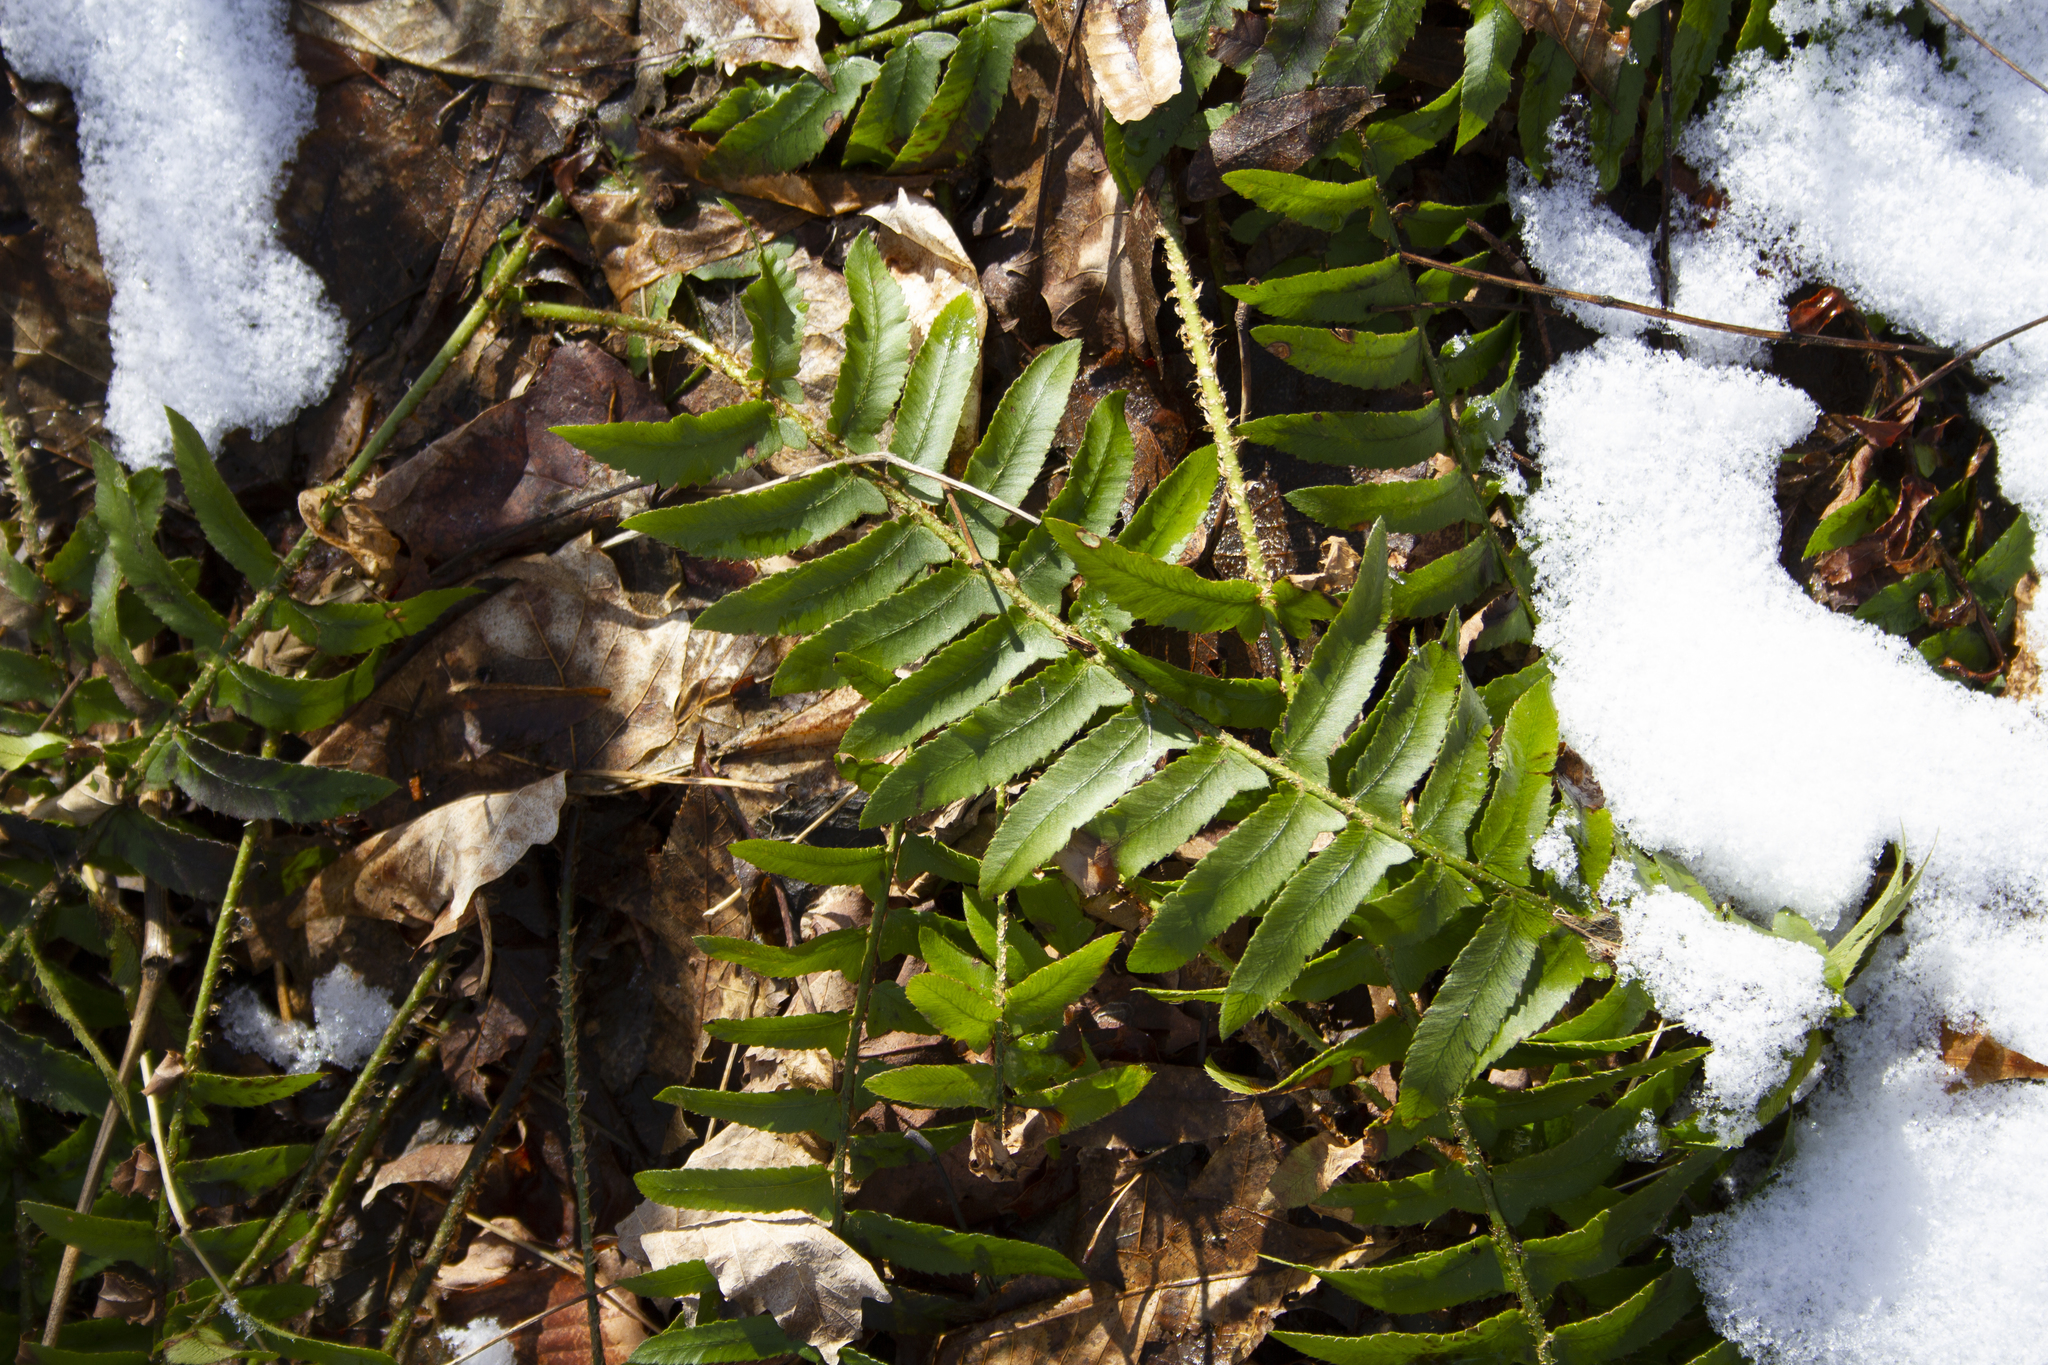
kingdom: Plantae
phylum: Tracheophyta
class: Polypodiopsida
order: Polypodiales
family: Dryopteridaceae
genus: Polystichum
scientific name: Polystichum acrostichoides
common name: Christmas fern
